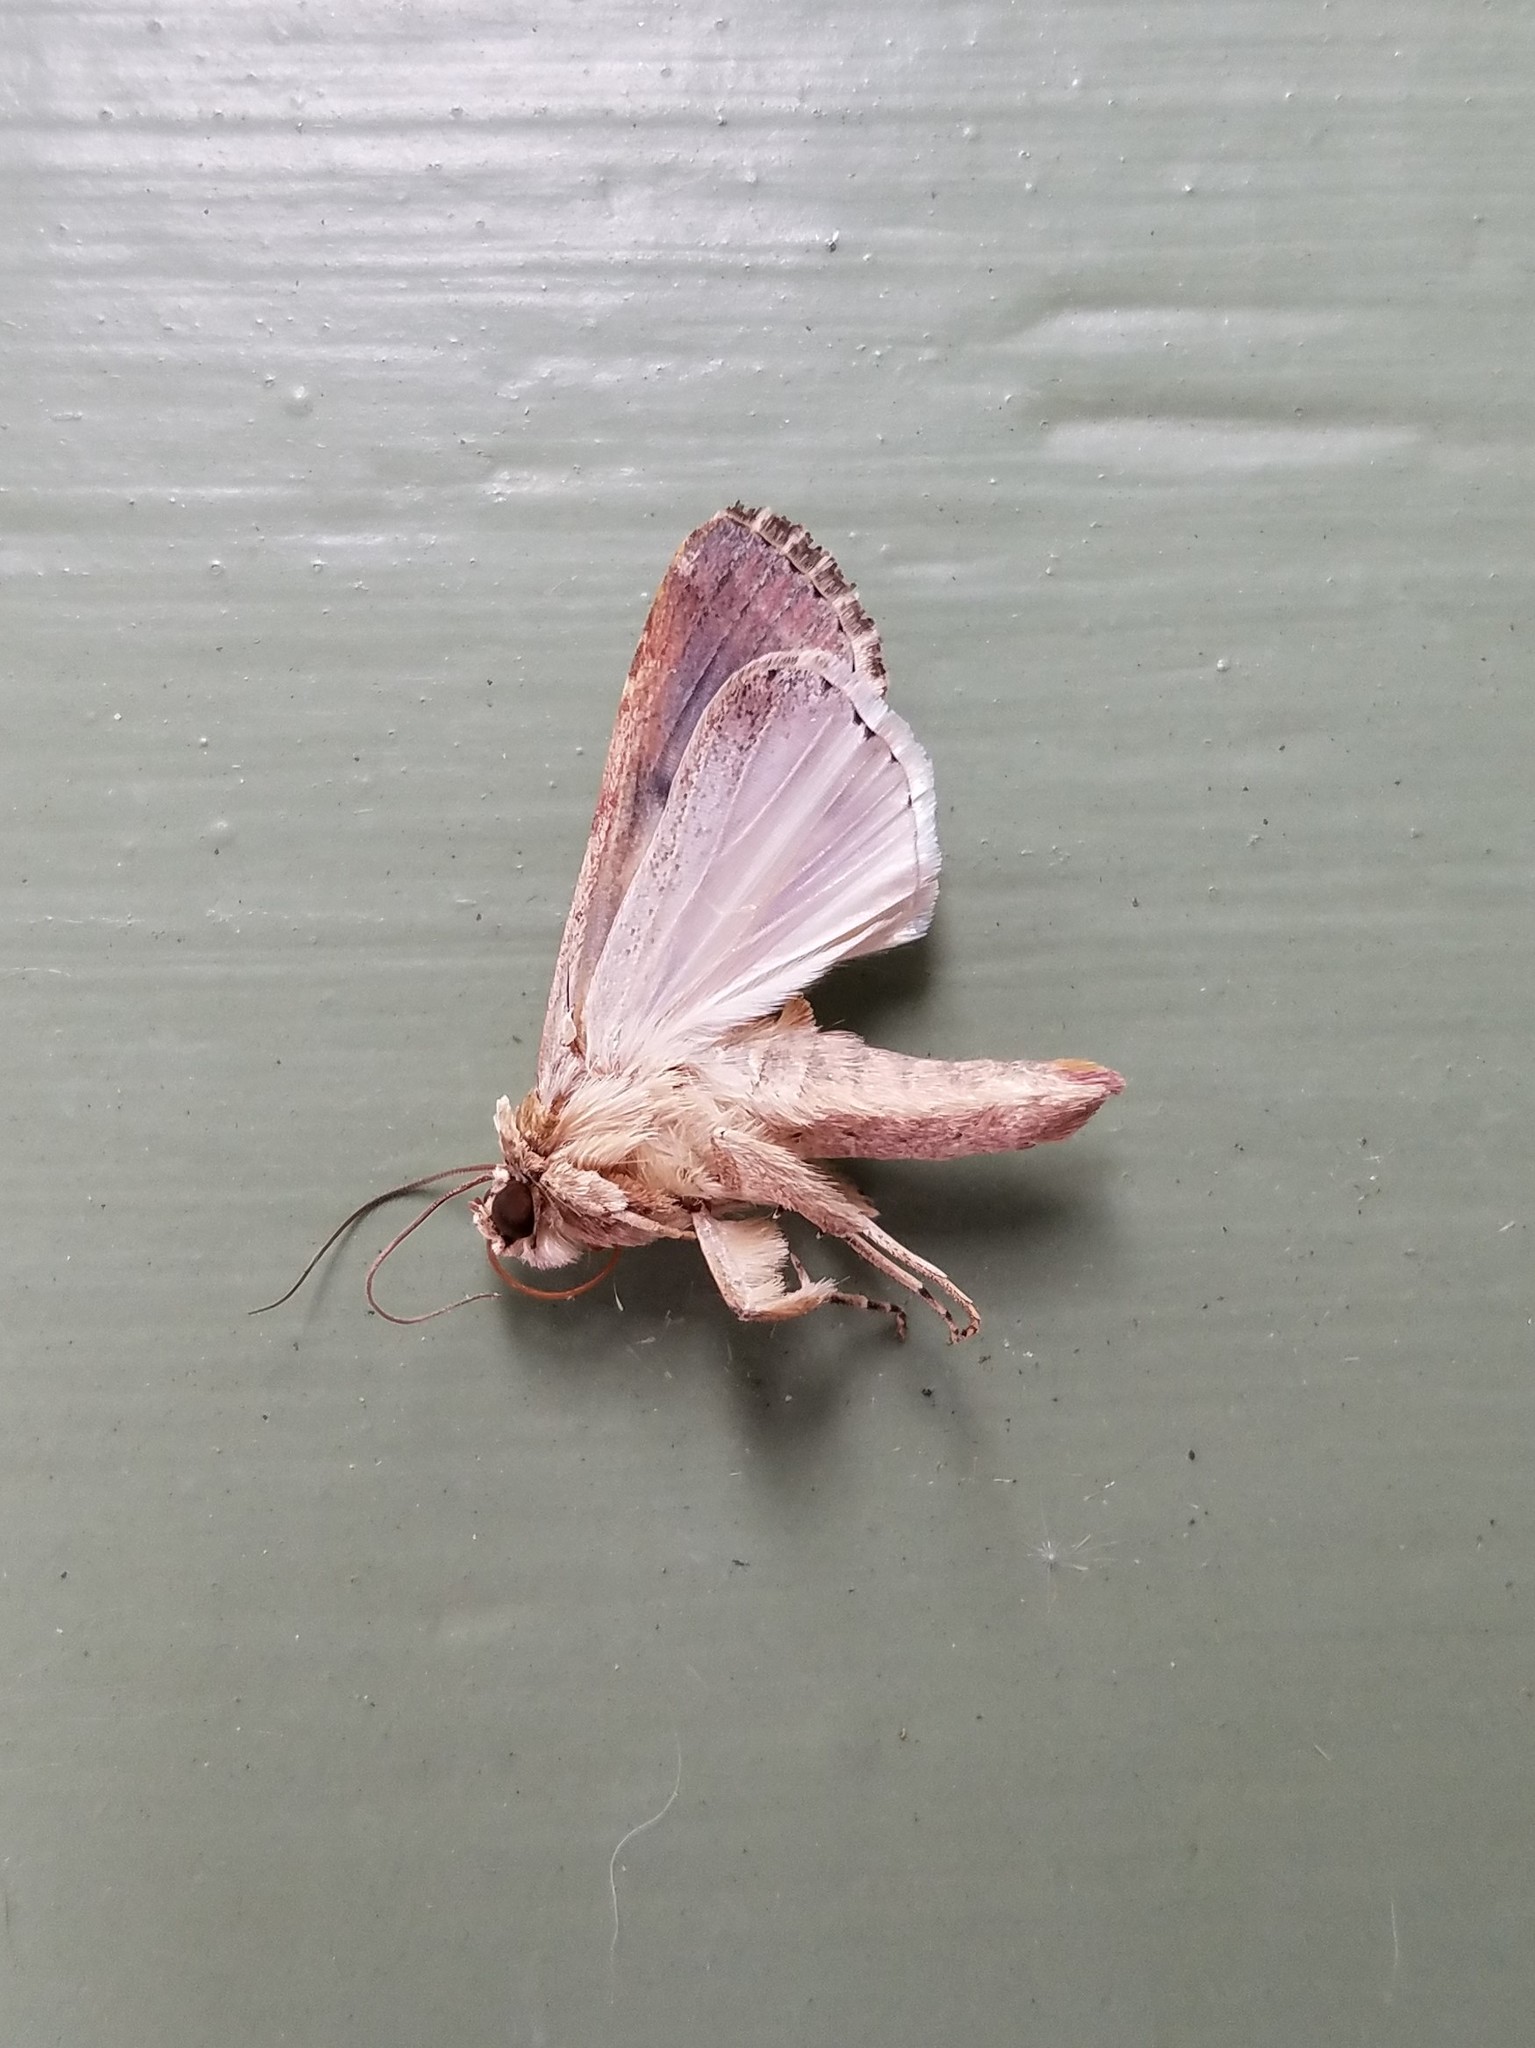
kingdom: Animalia
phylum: Arthropoda
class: Insecta
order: Lepidoptera
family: Noctuidae
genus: Spodoptera
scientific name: Spodoptera ornithogalli
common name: Yellow-striped armyworm
